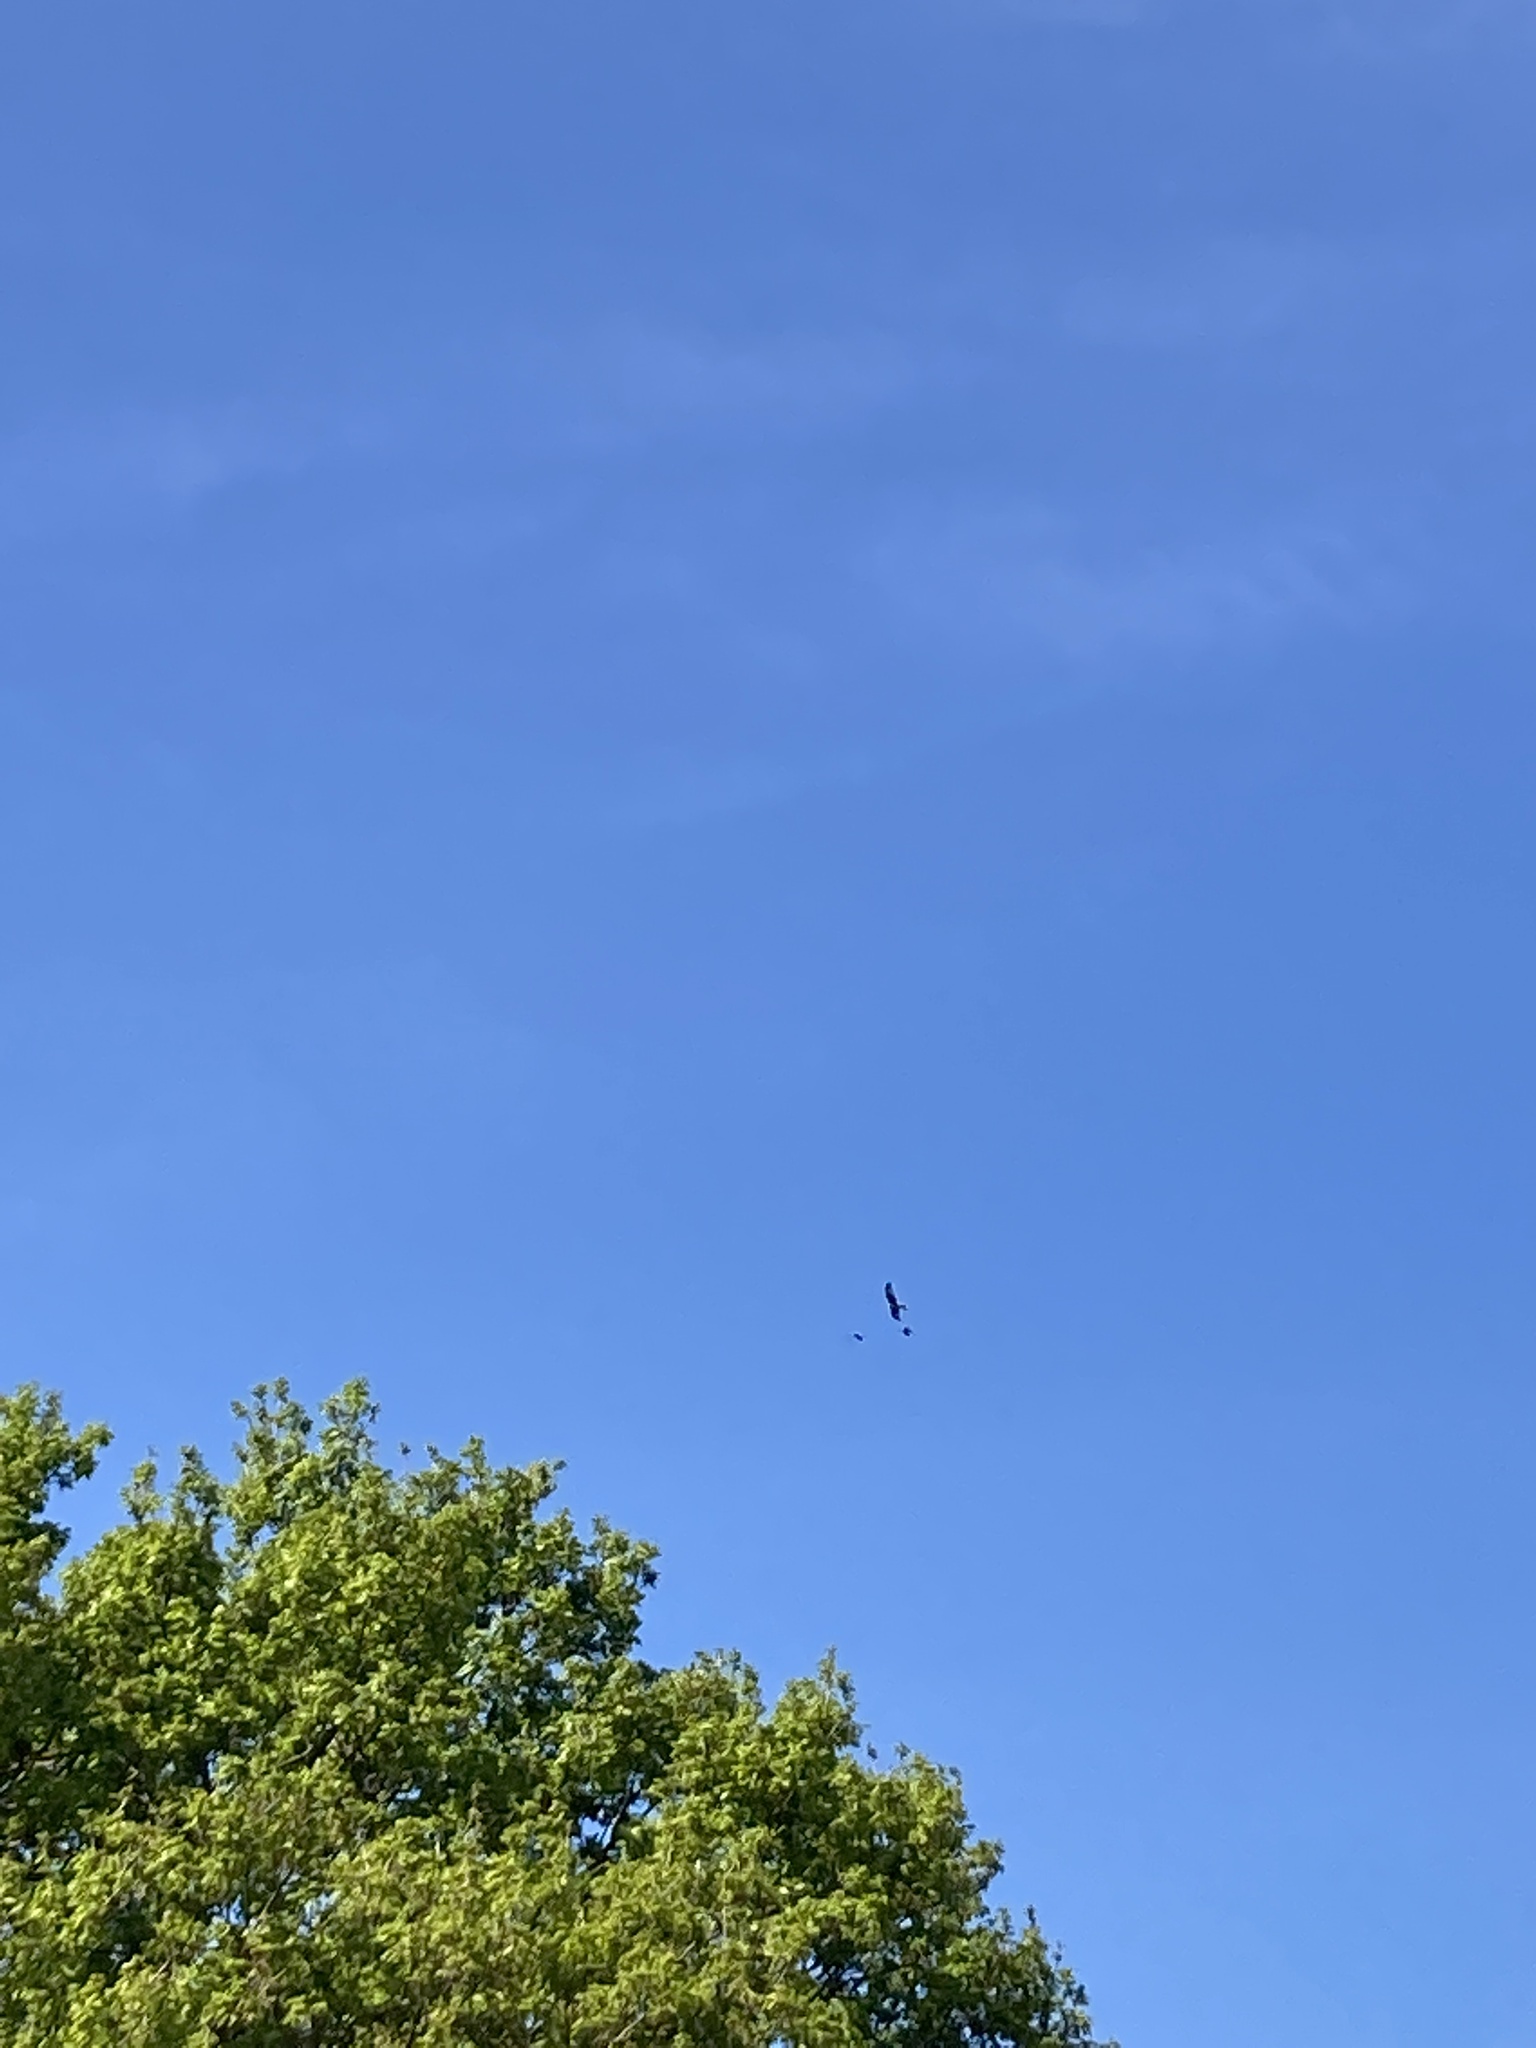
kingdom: Animalia
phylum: Chordata
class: Aves
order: Accipitriformes
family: Accipitridae
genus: Milvus
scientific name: Milvus milvus
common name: Red kite
